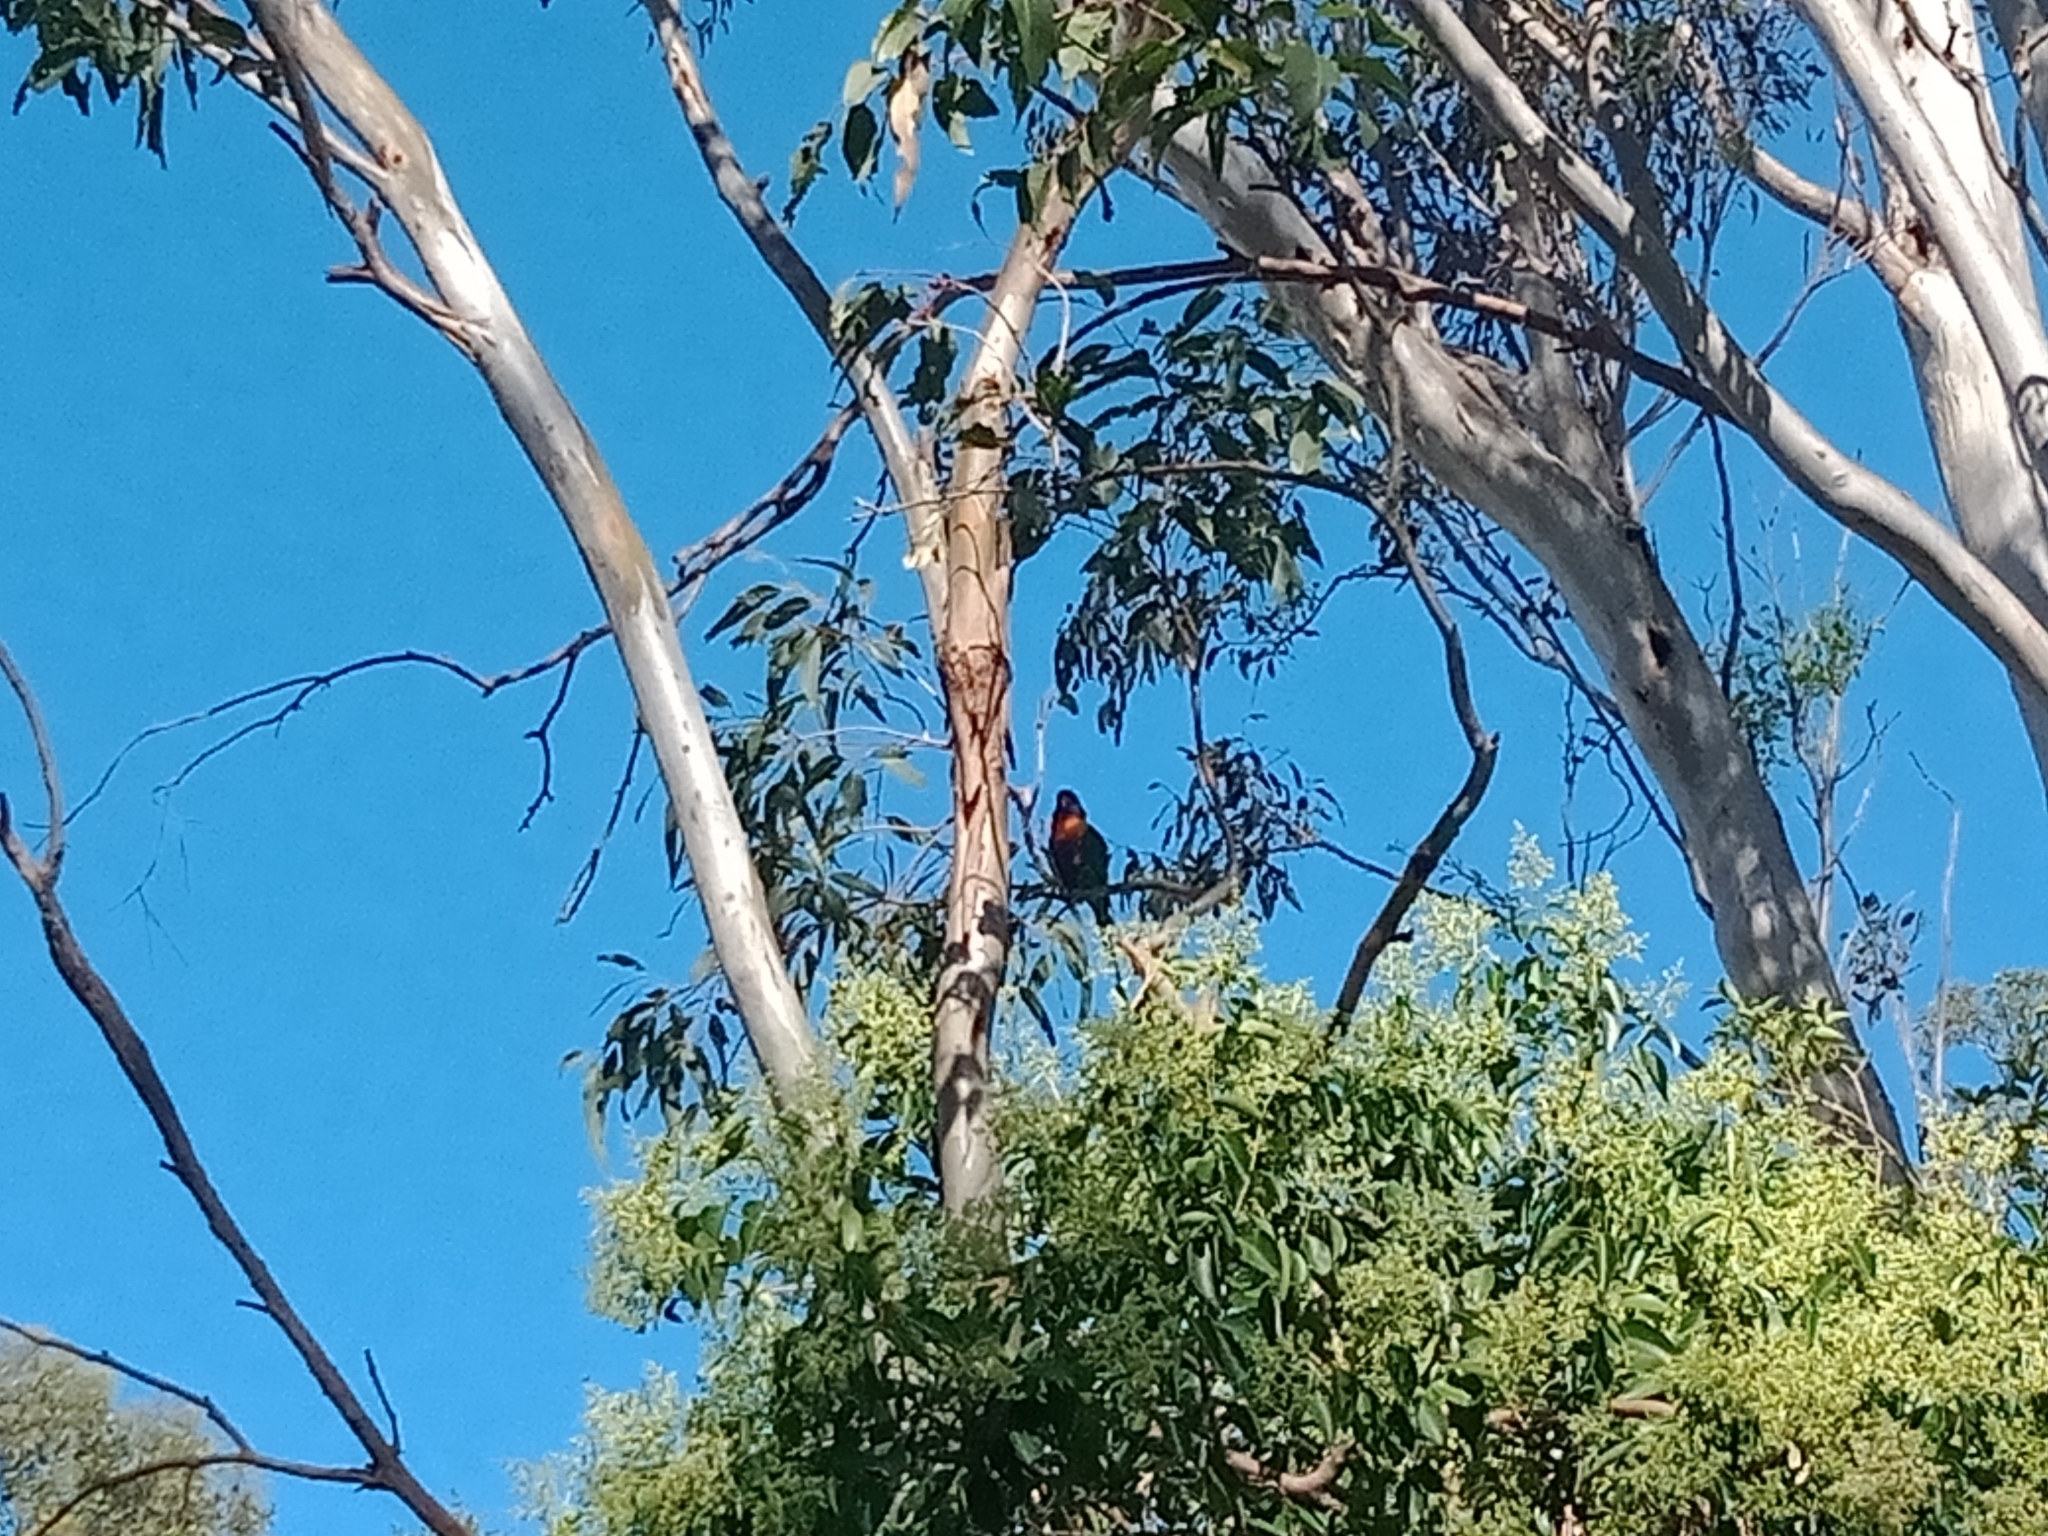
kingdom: Animalia
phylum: Chordata
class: Aves
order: Psittaciformes
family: Psittacidae
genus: Trichoglossus
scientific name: Trichoglossus haematodus
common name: Coconut lorikeet
